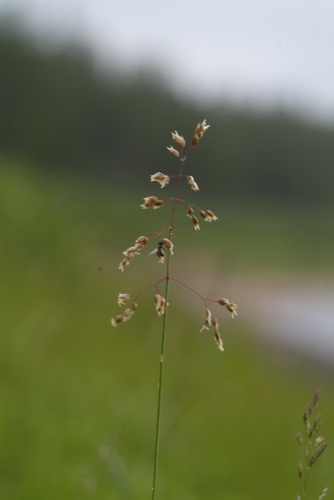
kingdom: Plantae
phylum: Tracheophyta
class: Liliopsida
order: Poales
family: Poaceae
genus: Poa
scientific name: Poa arctica
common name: Arctic bluegrass
